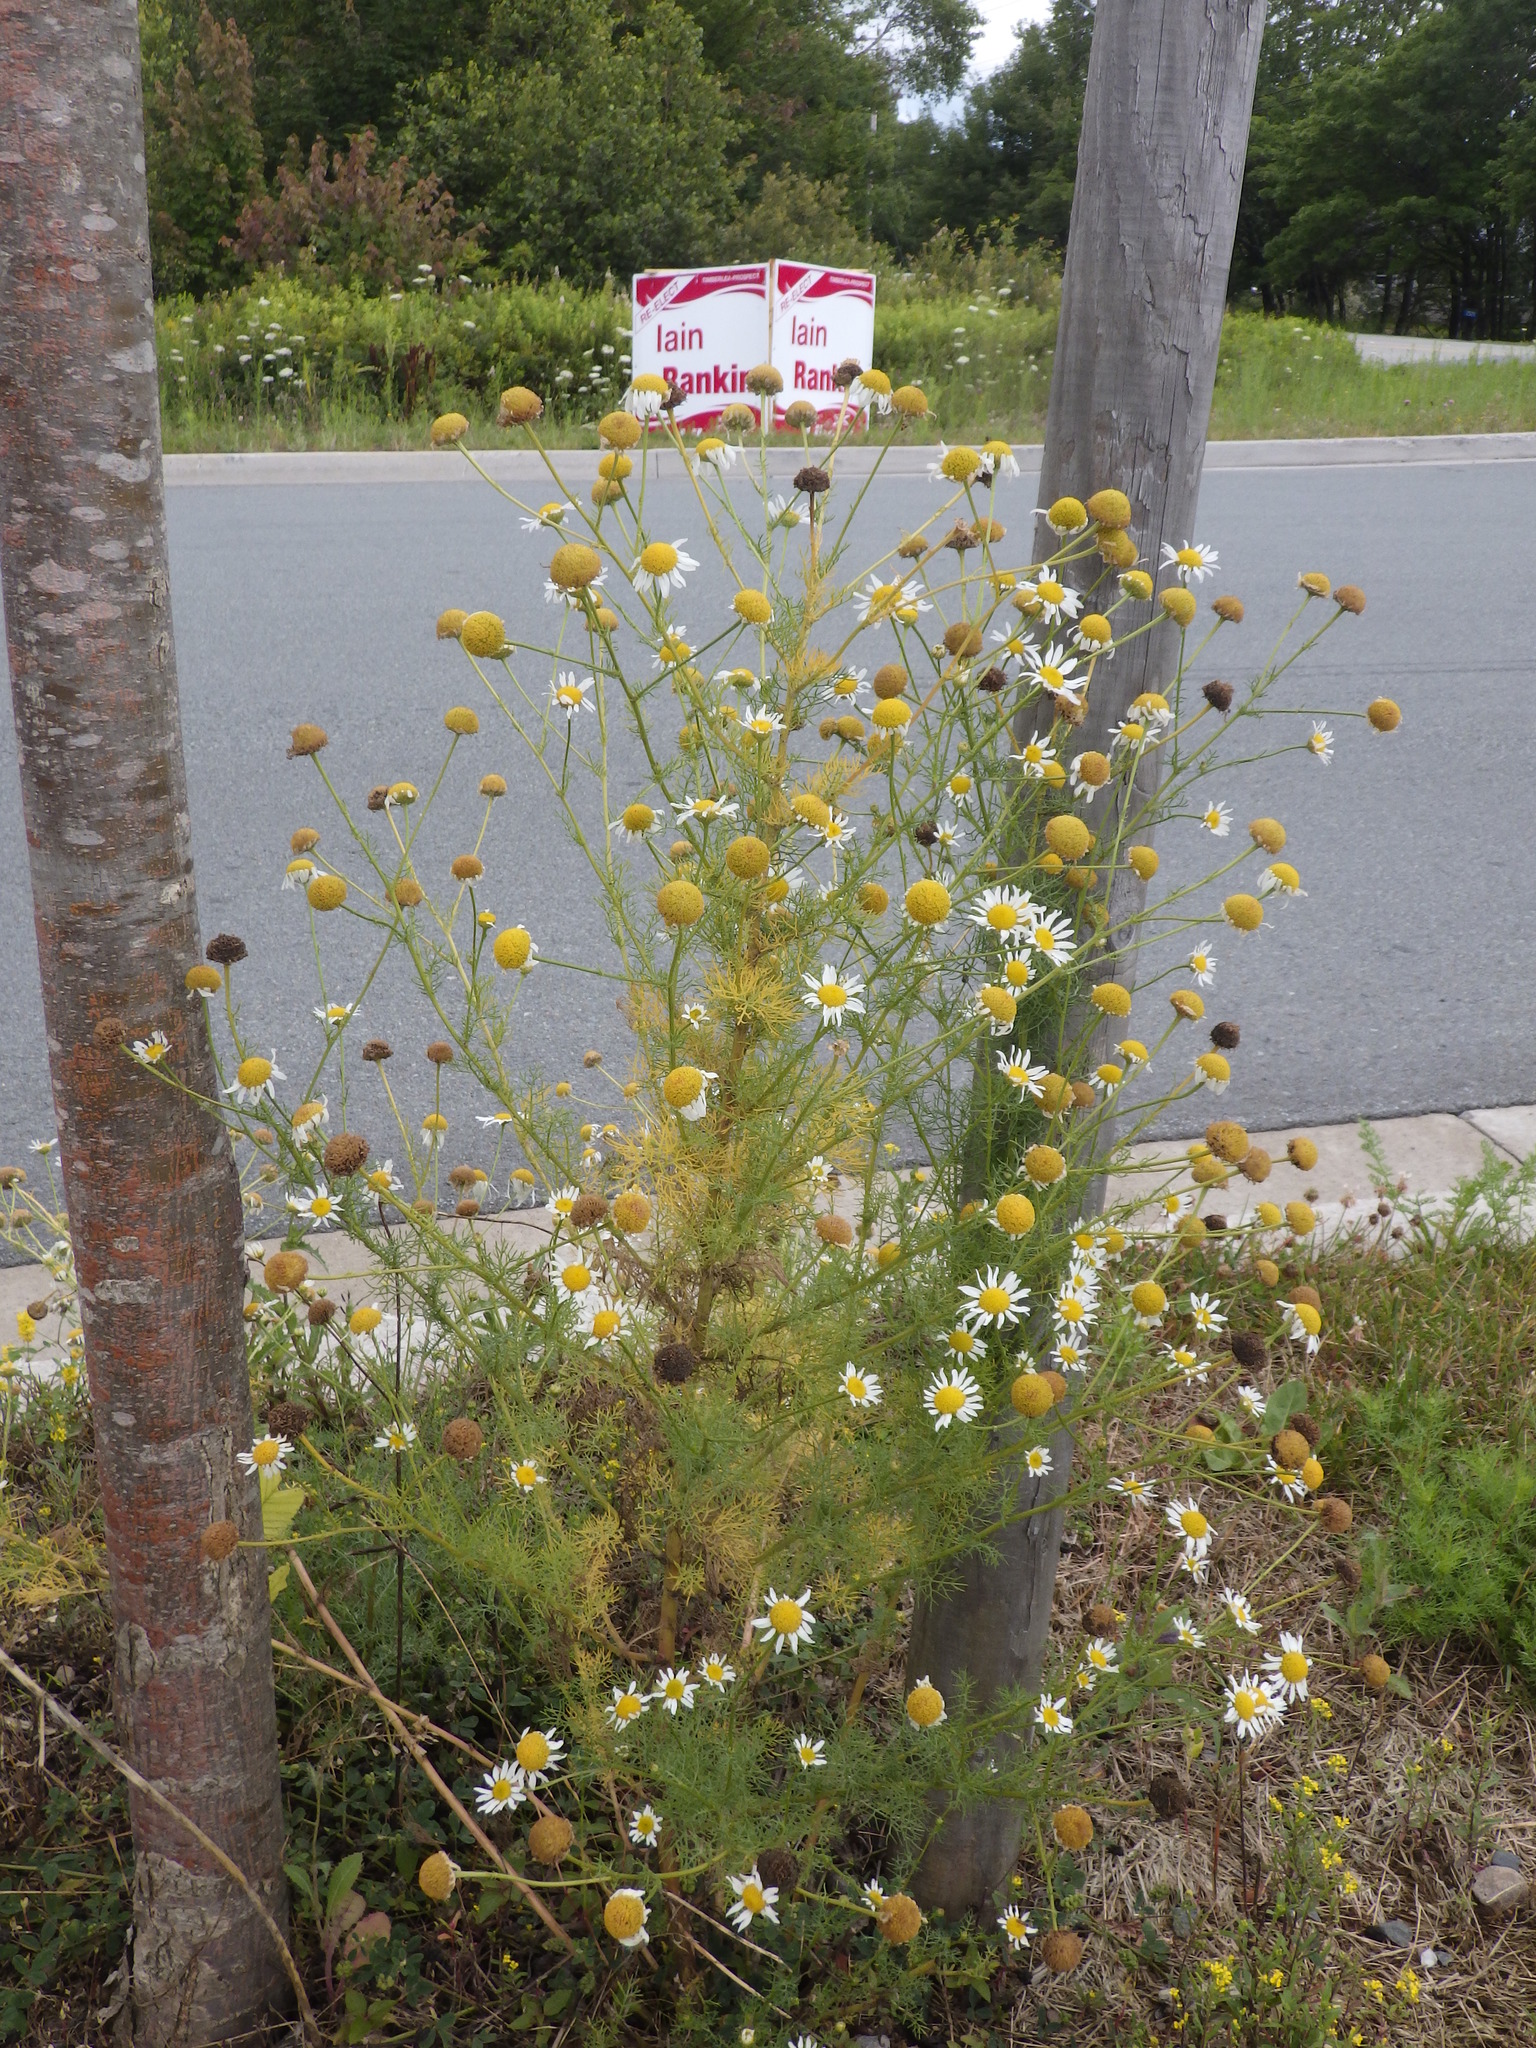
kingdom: Plantae
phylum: Tracheophyta
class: Magnoliopsida
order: Asterales
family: Asteraceae
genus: Tripleurospermum
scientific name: Tripleurospermum inodorum
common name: Scentless mayweed
